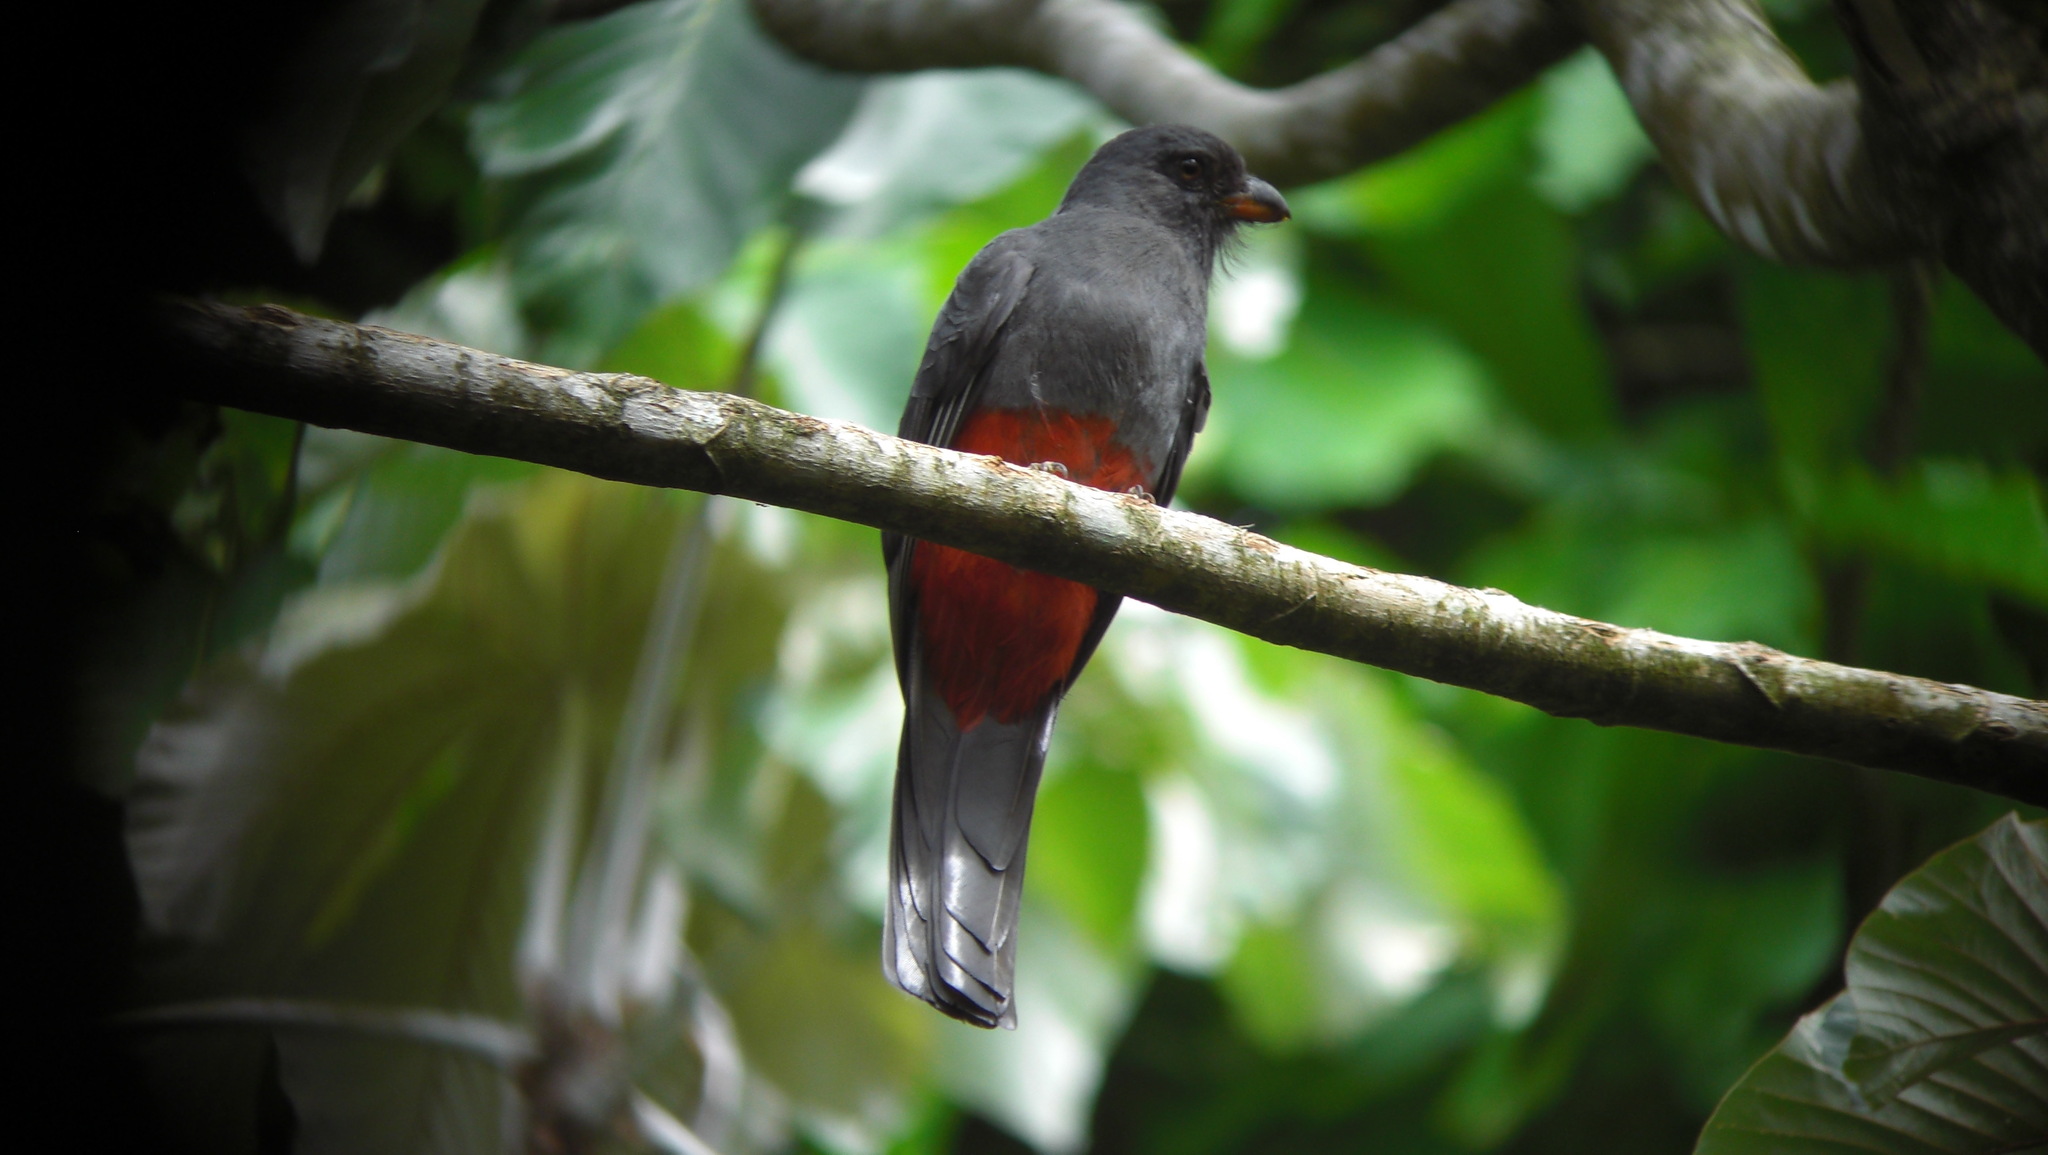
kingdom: Animalia
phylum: Chordata
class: Aves
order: Trogoniformes
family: Trogonidae
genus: Trogon
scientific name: Trogon massena
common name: Slaty-tailed trogon
